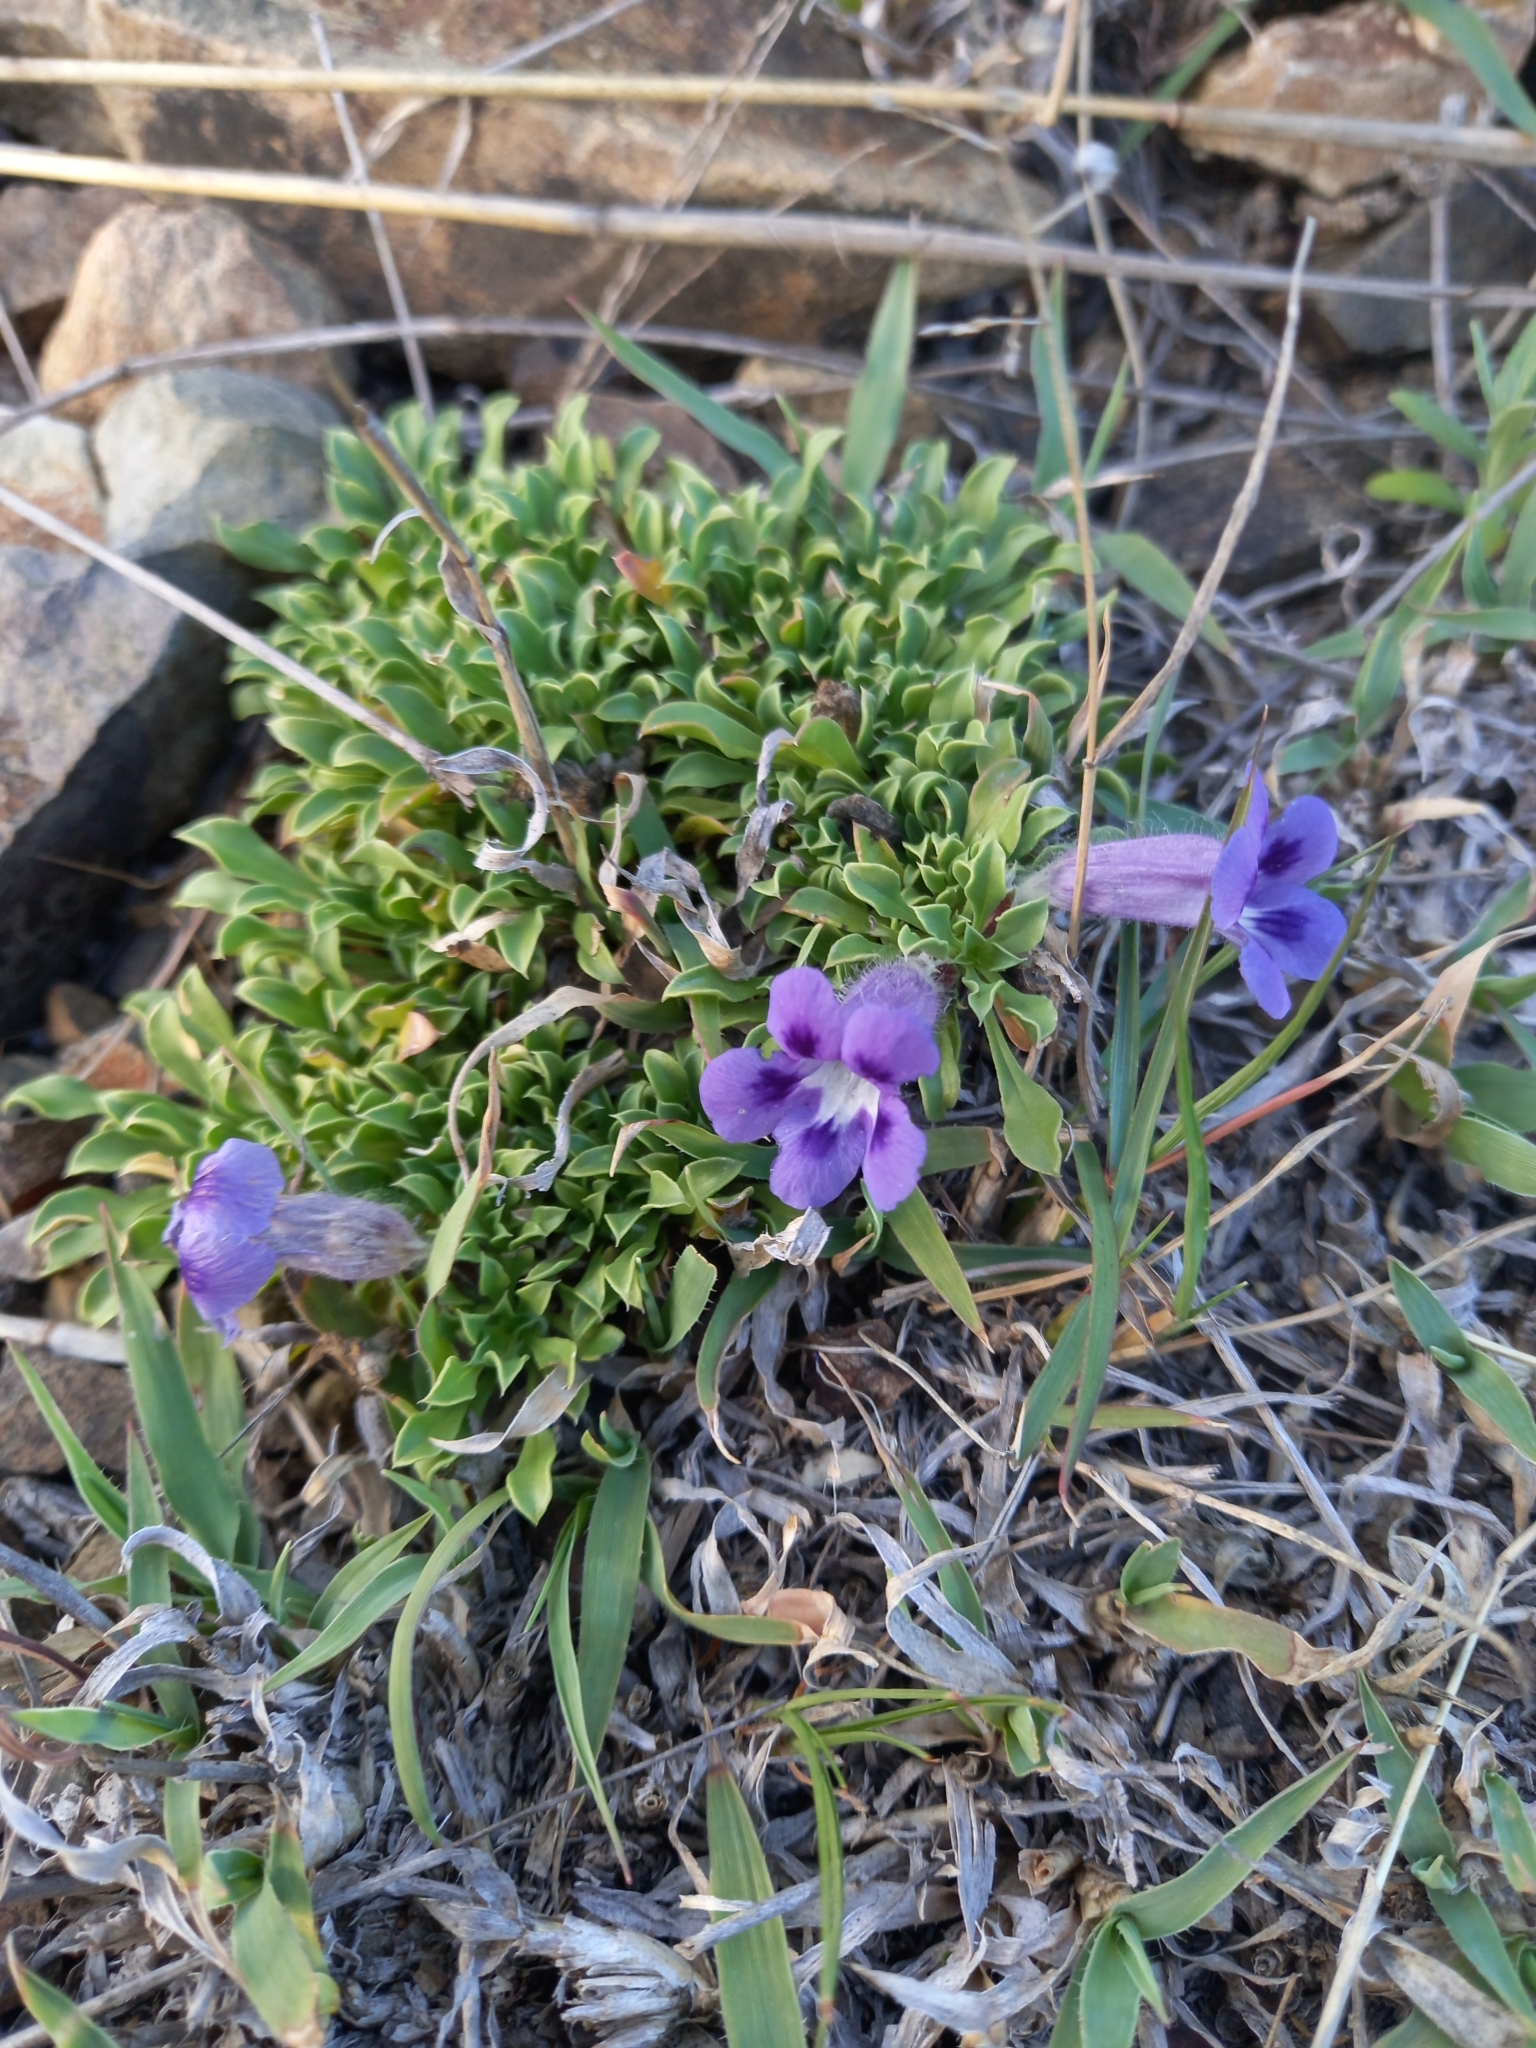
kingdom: Plantae
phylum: Tracheophyta
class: Magnoliopsida
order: Lamiales
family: Scrophulariaceae
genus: Aptosimum
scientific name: Aptosimum indivisum
